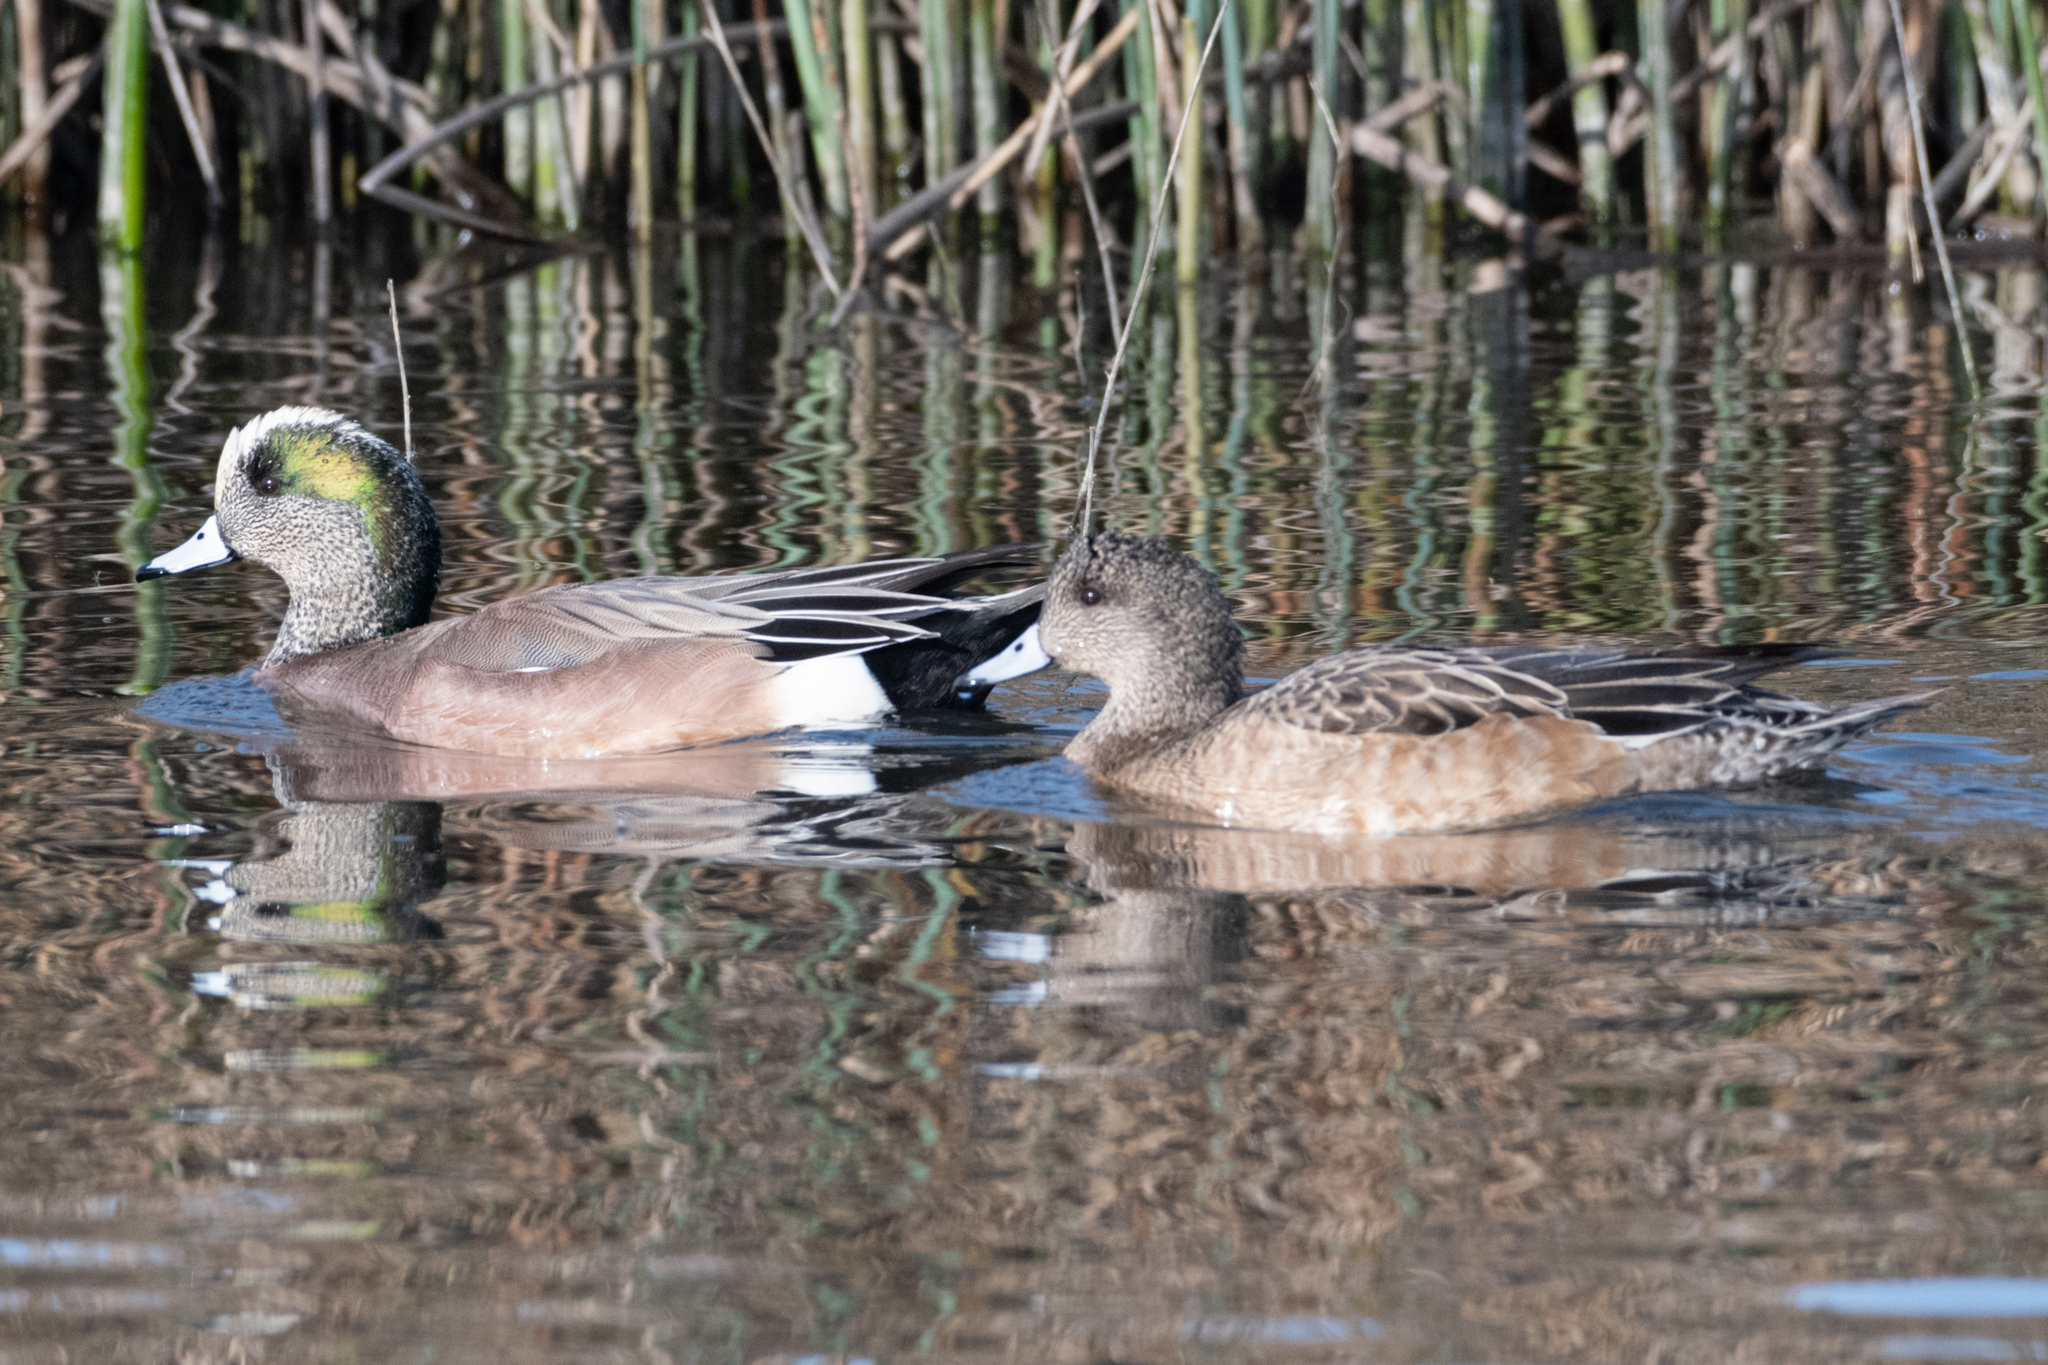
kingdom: Animalia
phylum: Chordata
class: Aves
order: Anseriformes
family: Anatidae
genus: Mareca
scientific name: Mareca americana
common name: American wigeon
